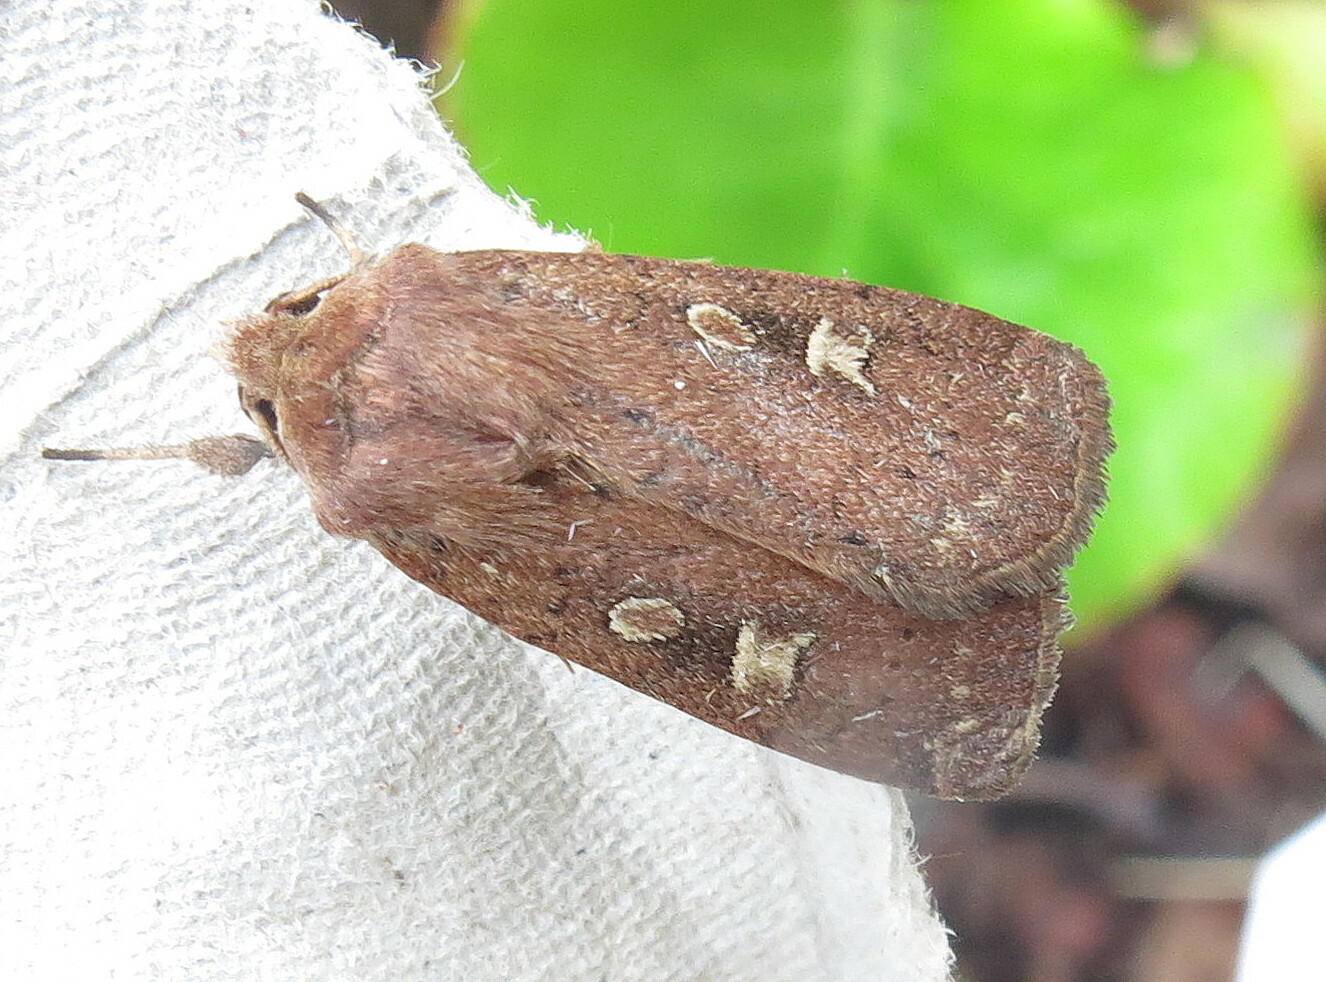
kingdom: Animalia
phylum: Arthropoda
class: Insecta
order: Lepidoptera
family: Noctuidae
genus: Xestia
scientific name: Xestia xanthographa
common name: Square-spot rustic
